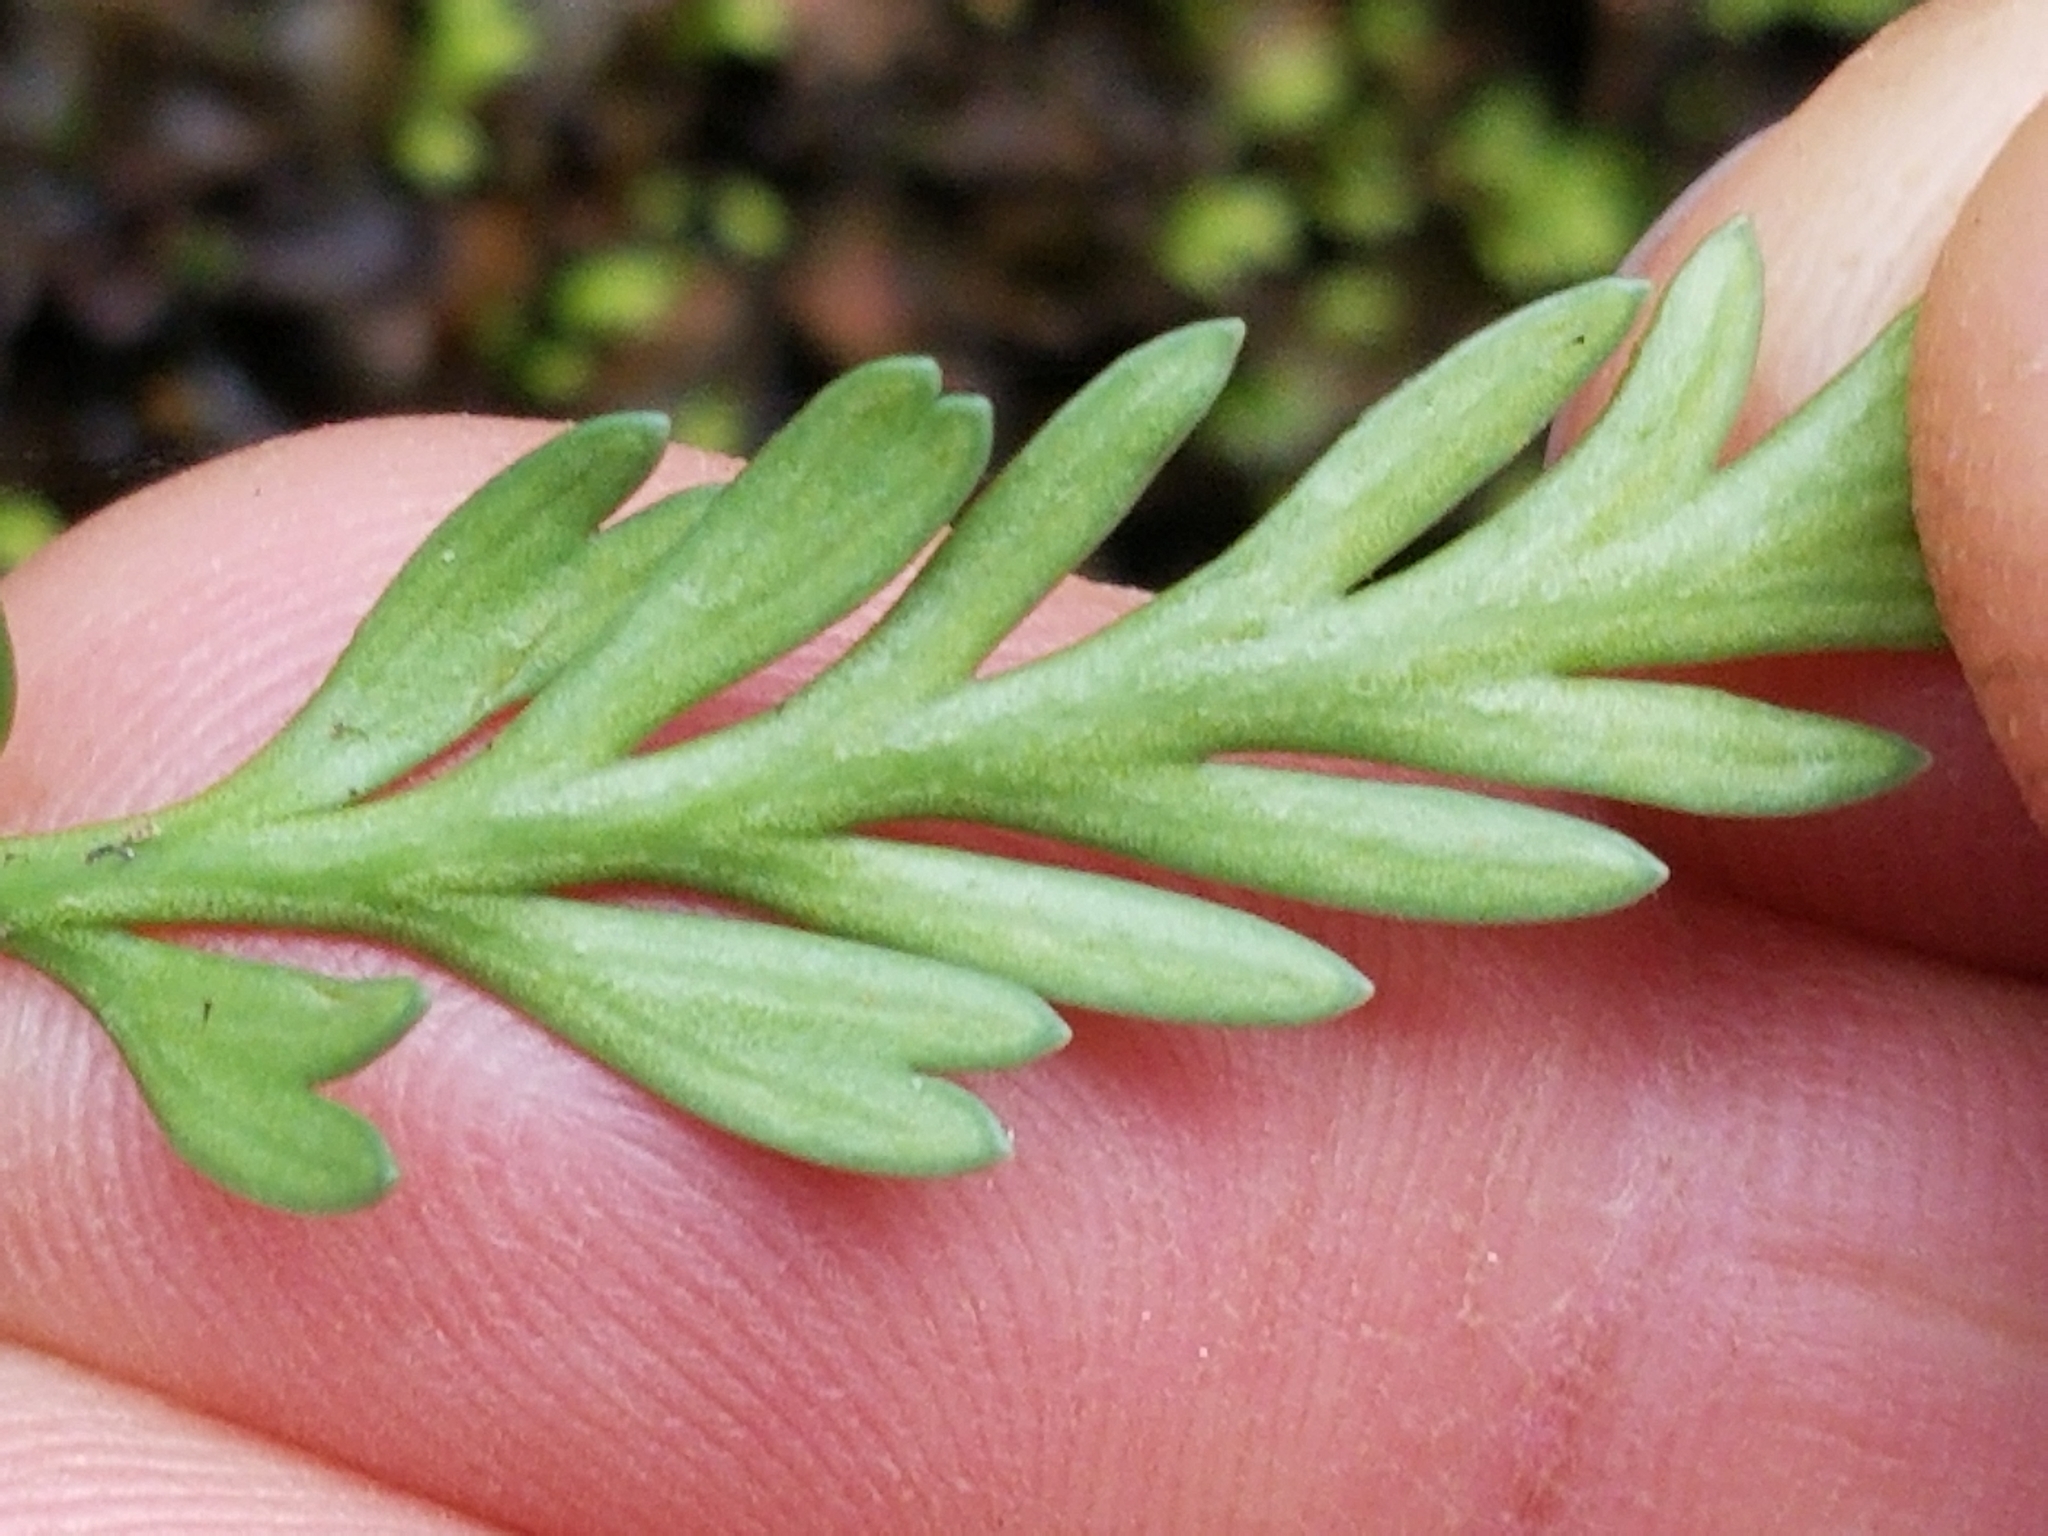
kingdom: Plantae
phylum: Tracheophyta
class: Polypodiopsida
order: Polypodiales
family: Aspleniaceae
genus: Asplenium
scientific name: Asplenium flaccidum
